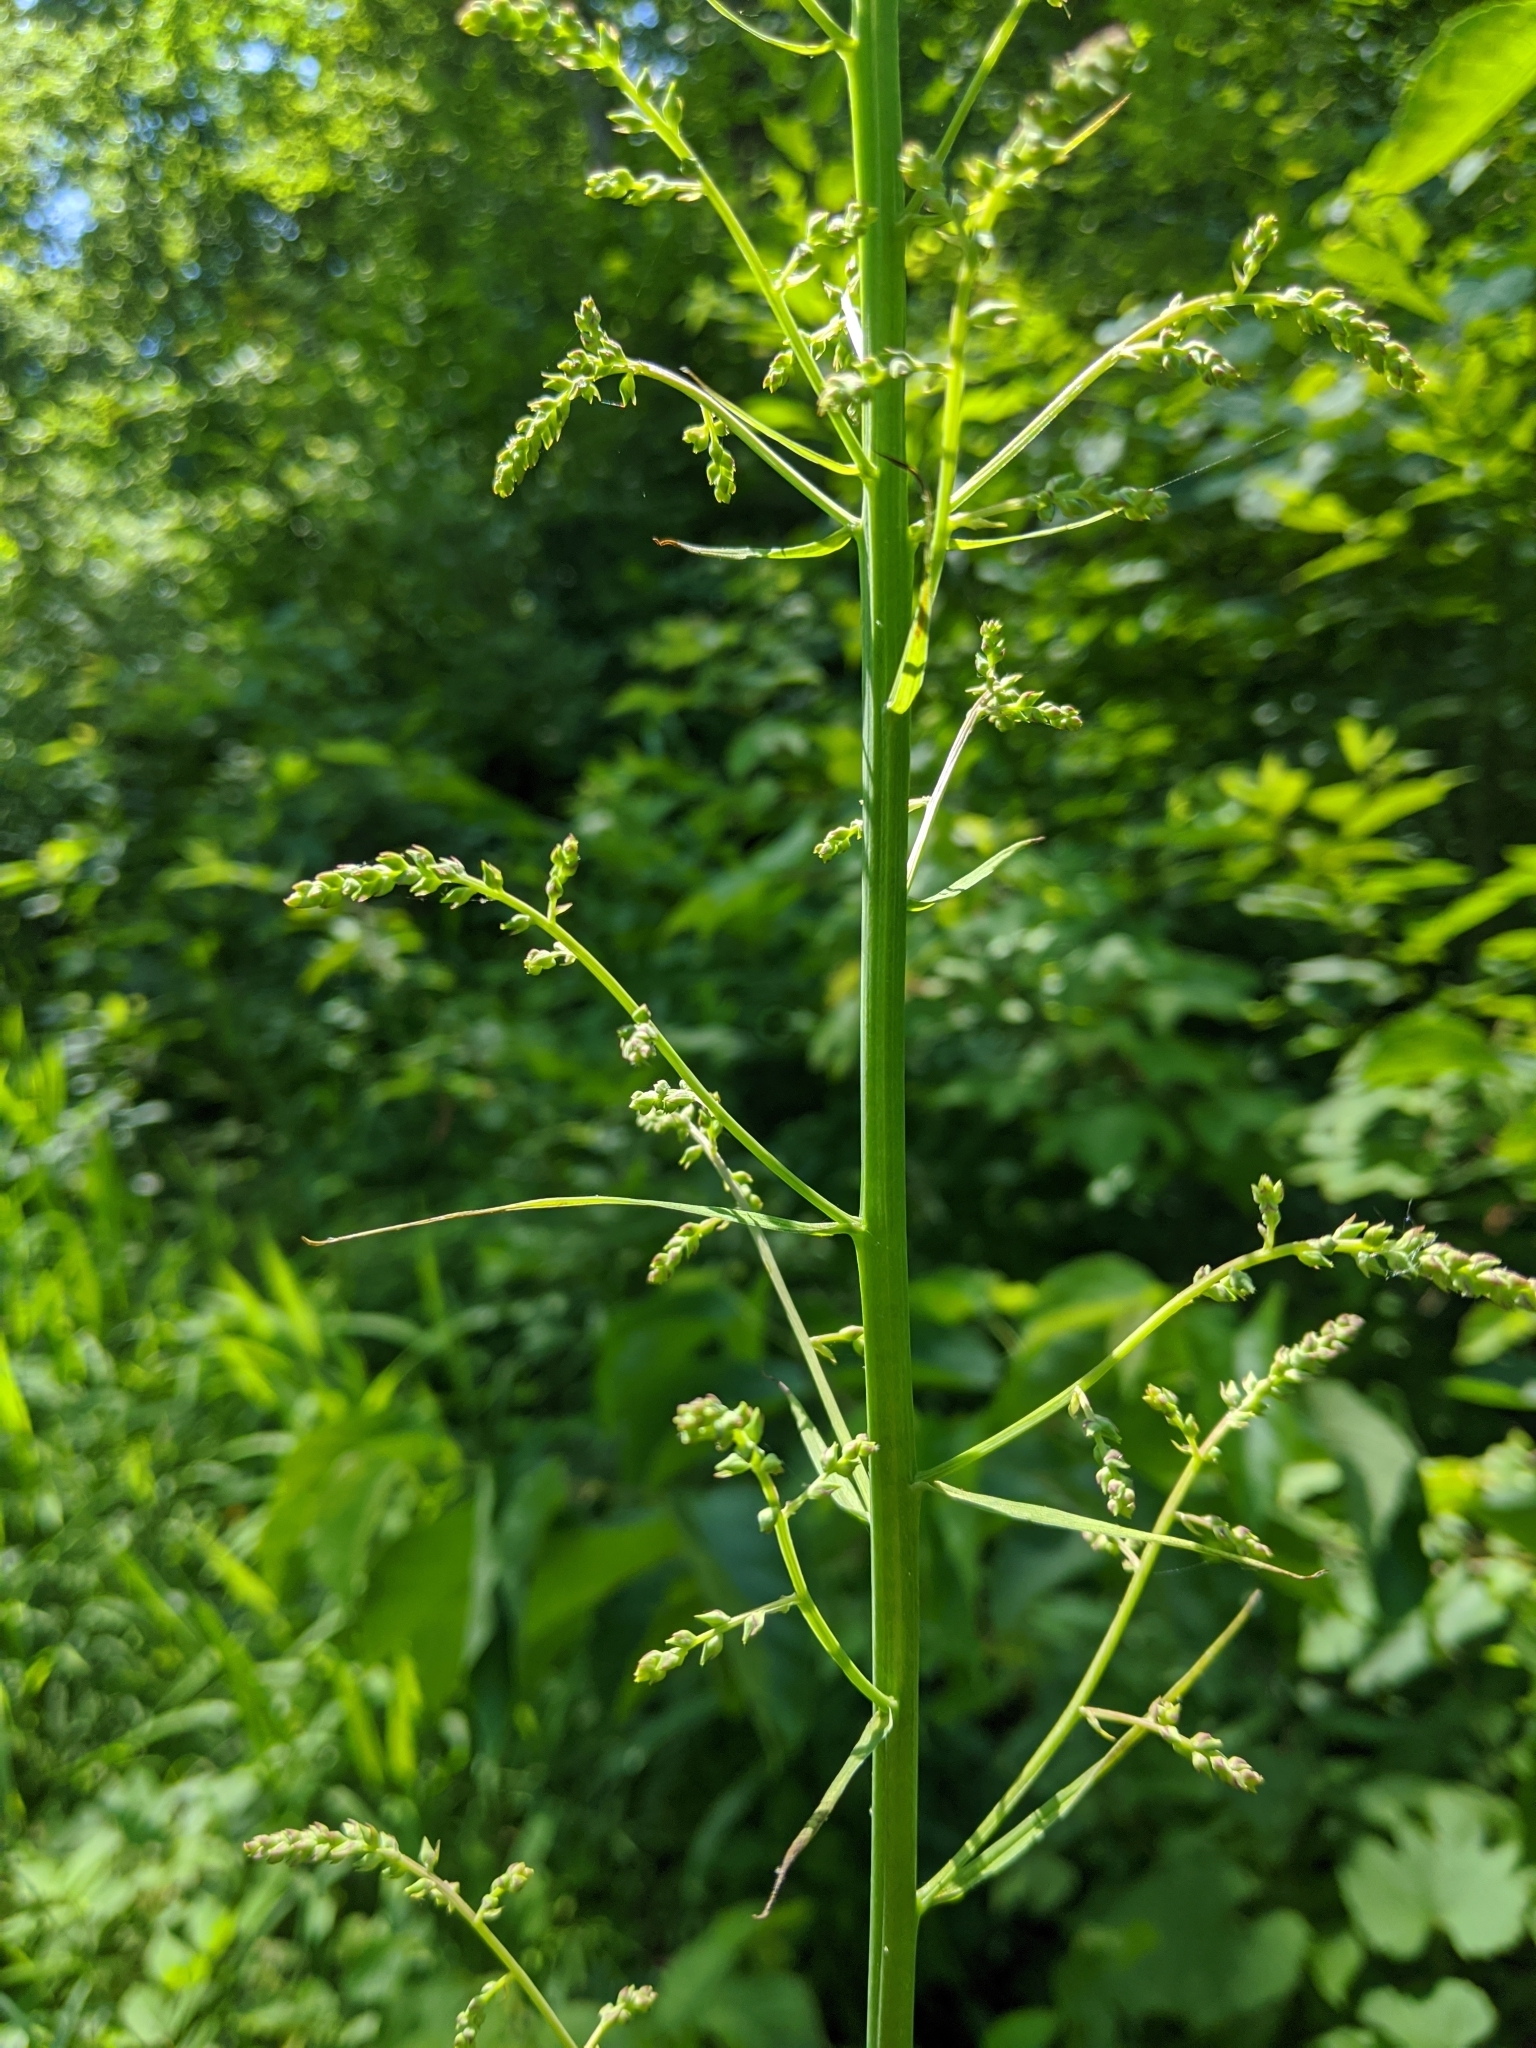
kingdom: Plantae
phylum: Tracheophyta
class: Liliopsida
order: Liliales
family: Melanthiaceae
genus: Stenanthium
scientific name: Stenanthium gramineum
